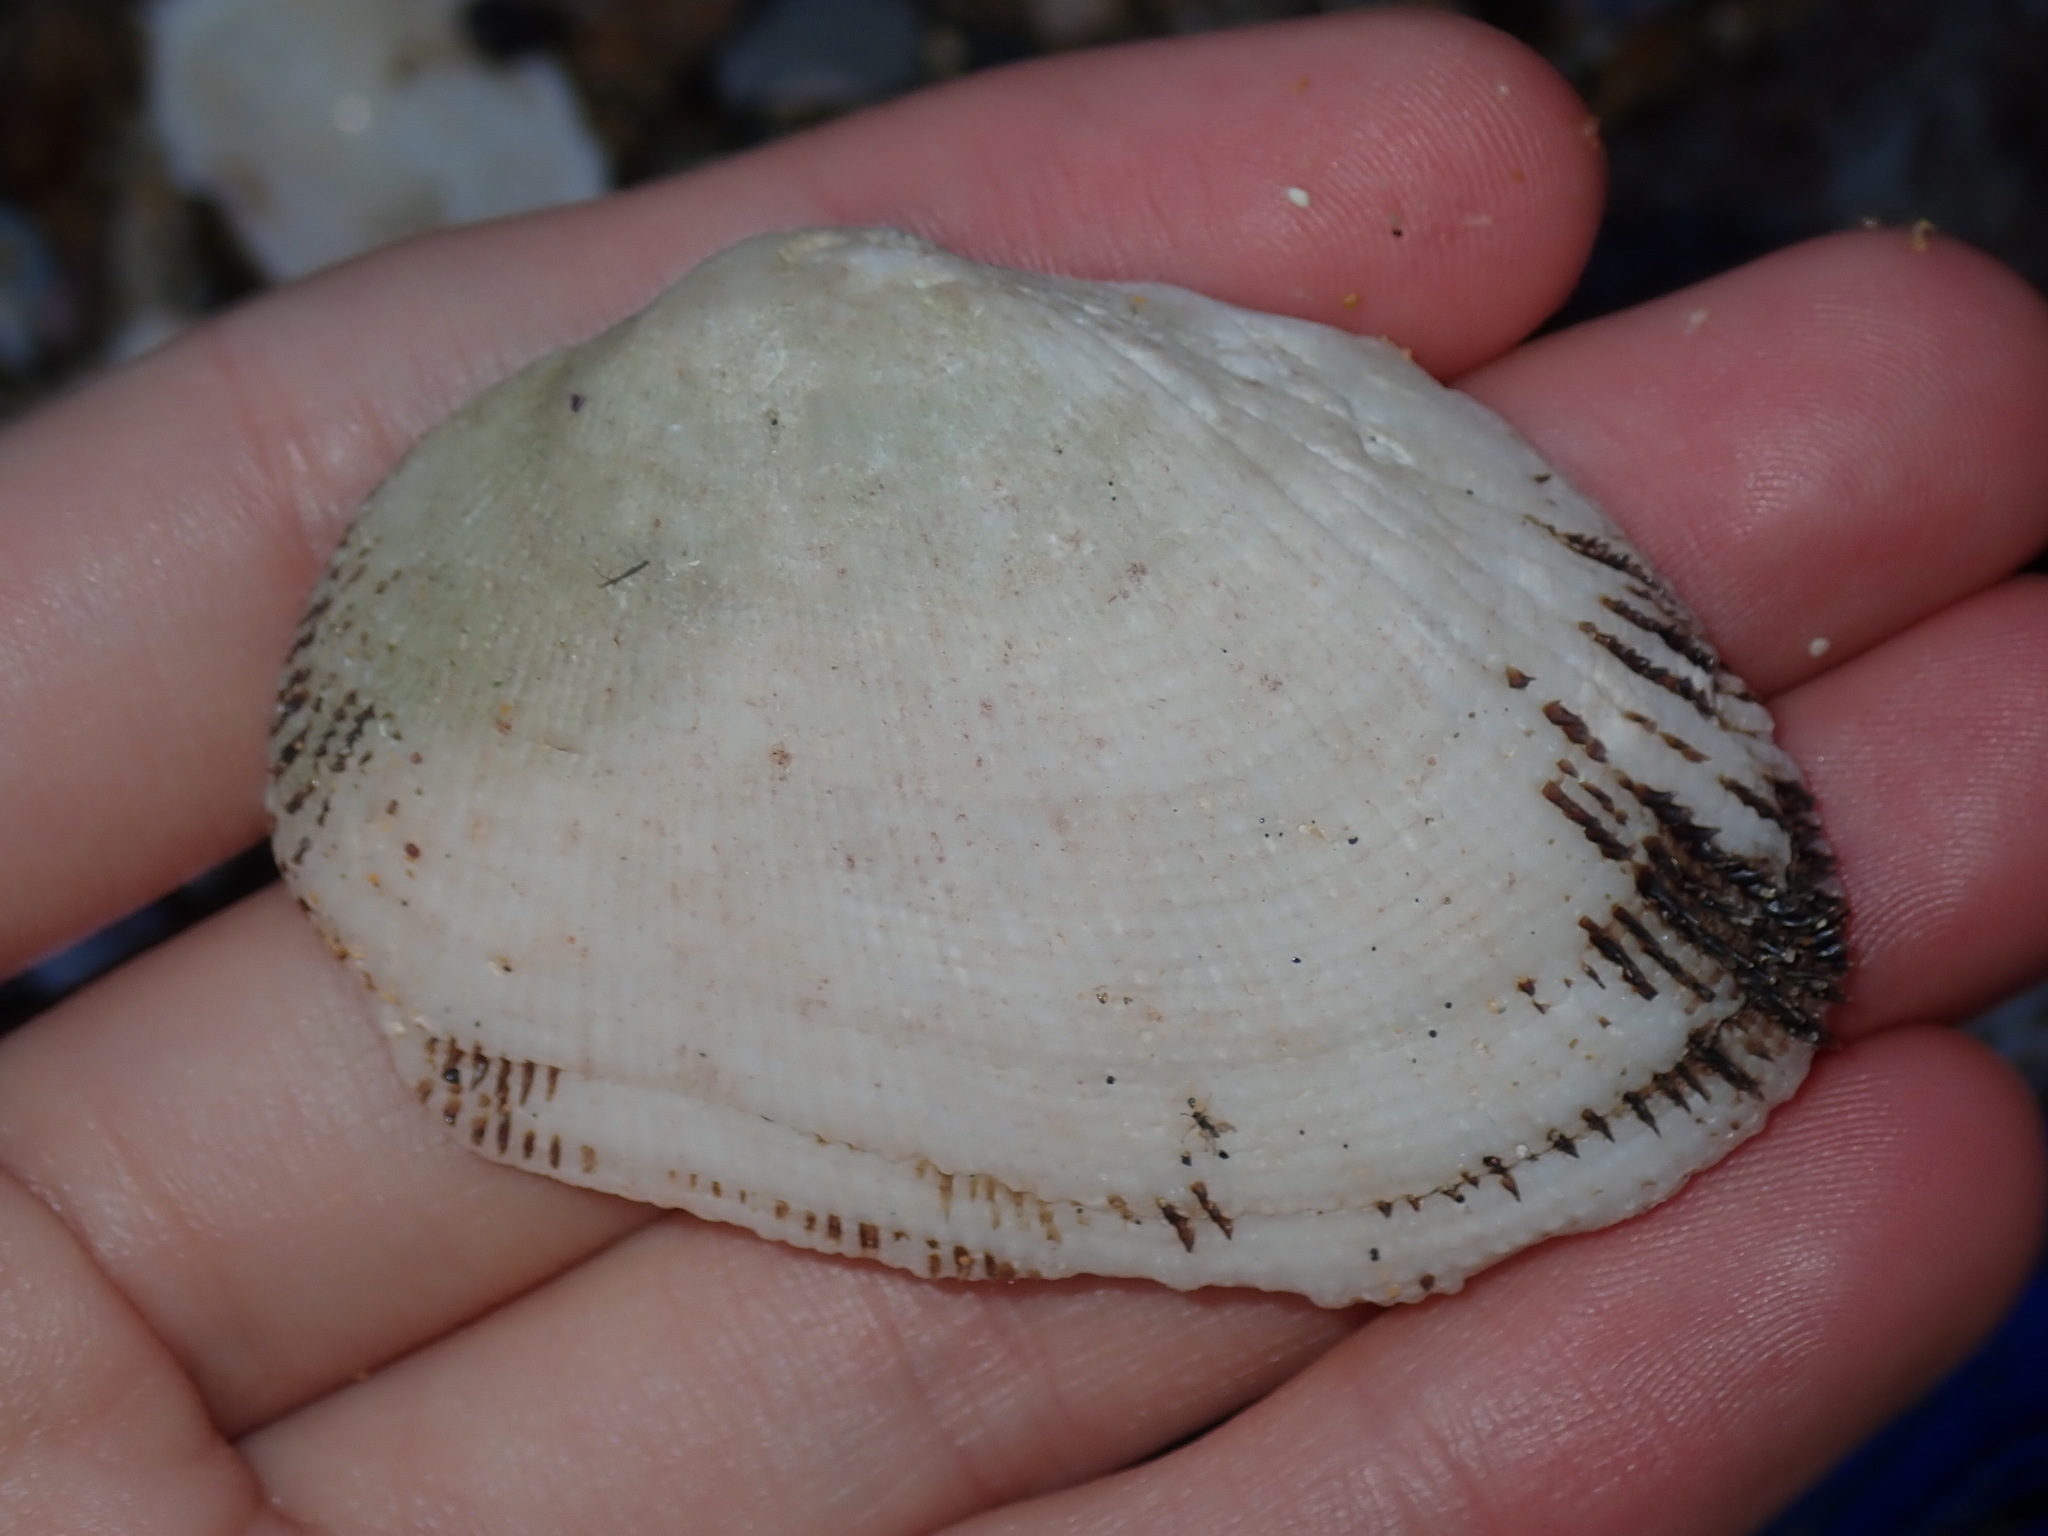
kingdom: Animalia
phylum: Mollusca
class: Bivalvia
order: Arcida
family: Arcidae
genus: Barbatia
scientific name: Barbatia parvivillosa
